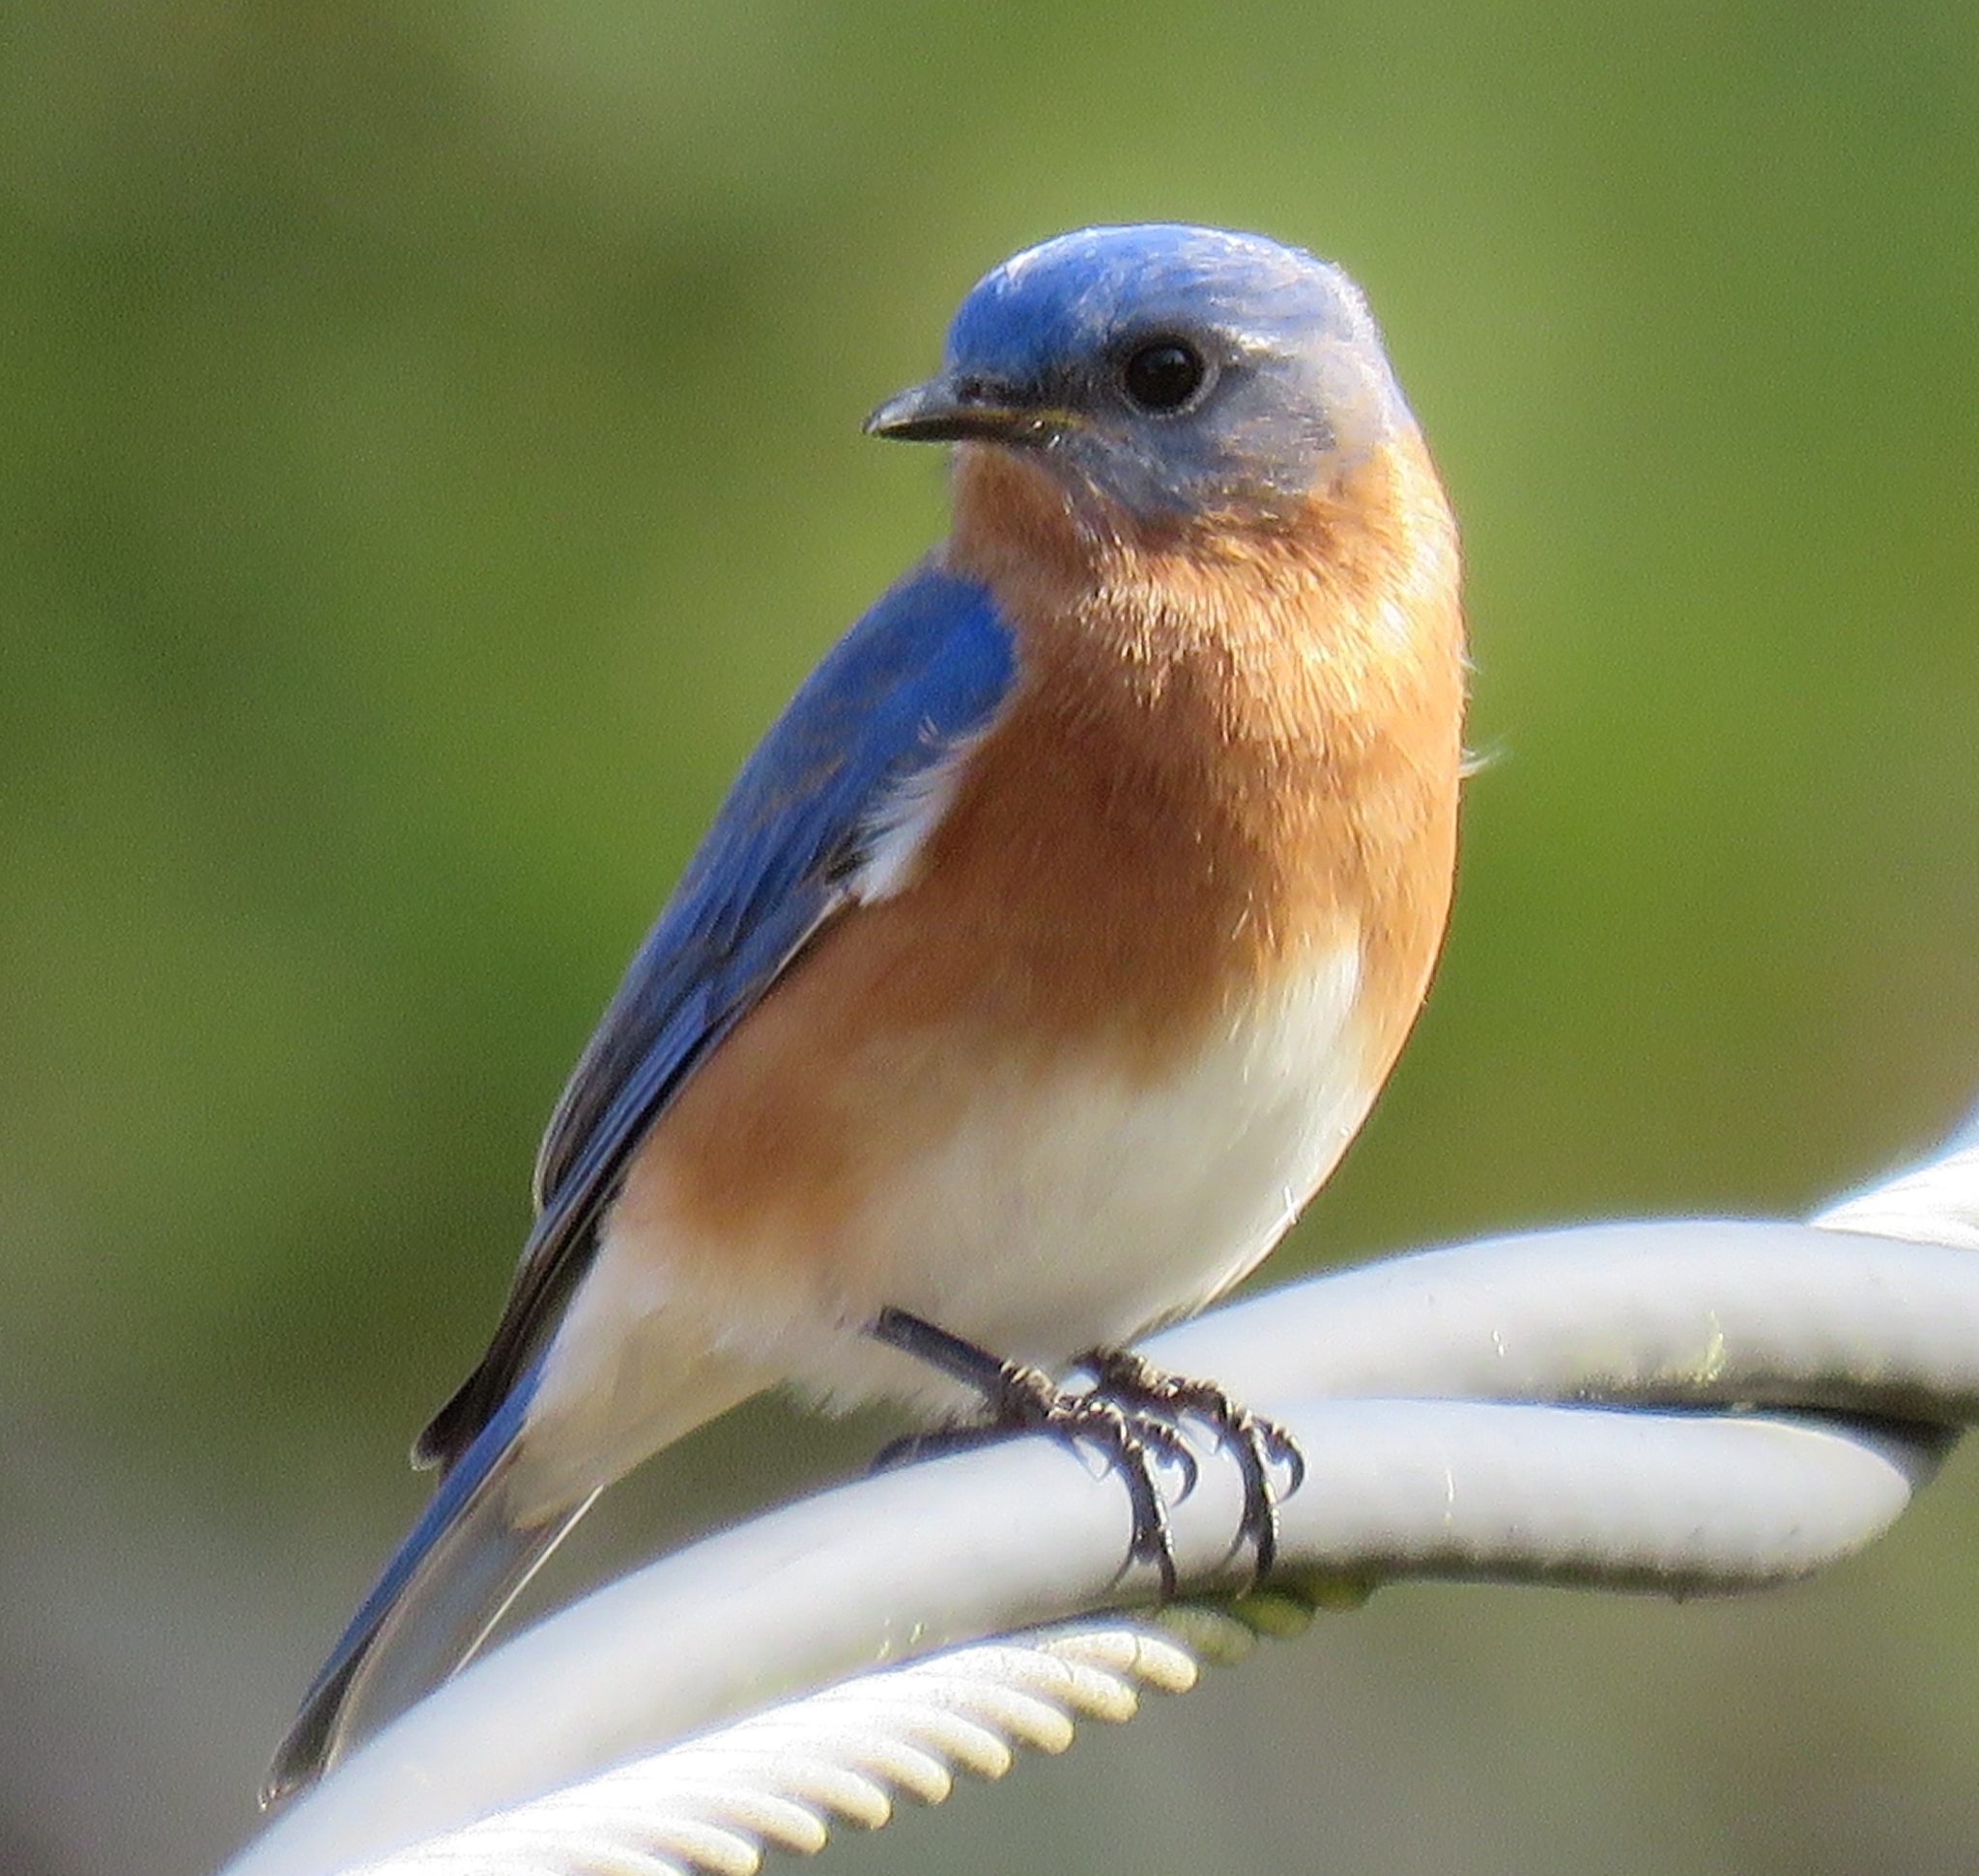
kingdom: Animalia
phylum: Chordata
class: Aves
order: Passeriformes
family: Turdidae
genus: Sialia
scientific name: Sialia sialis
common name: Eastern bluebird
